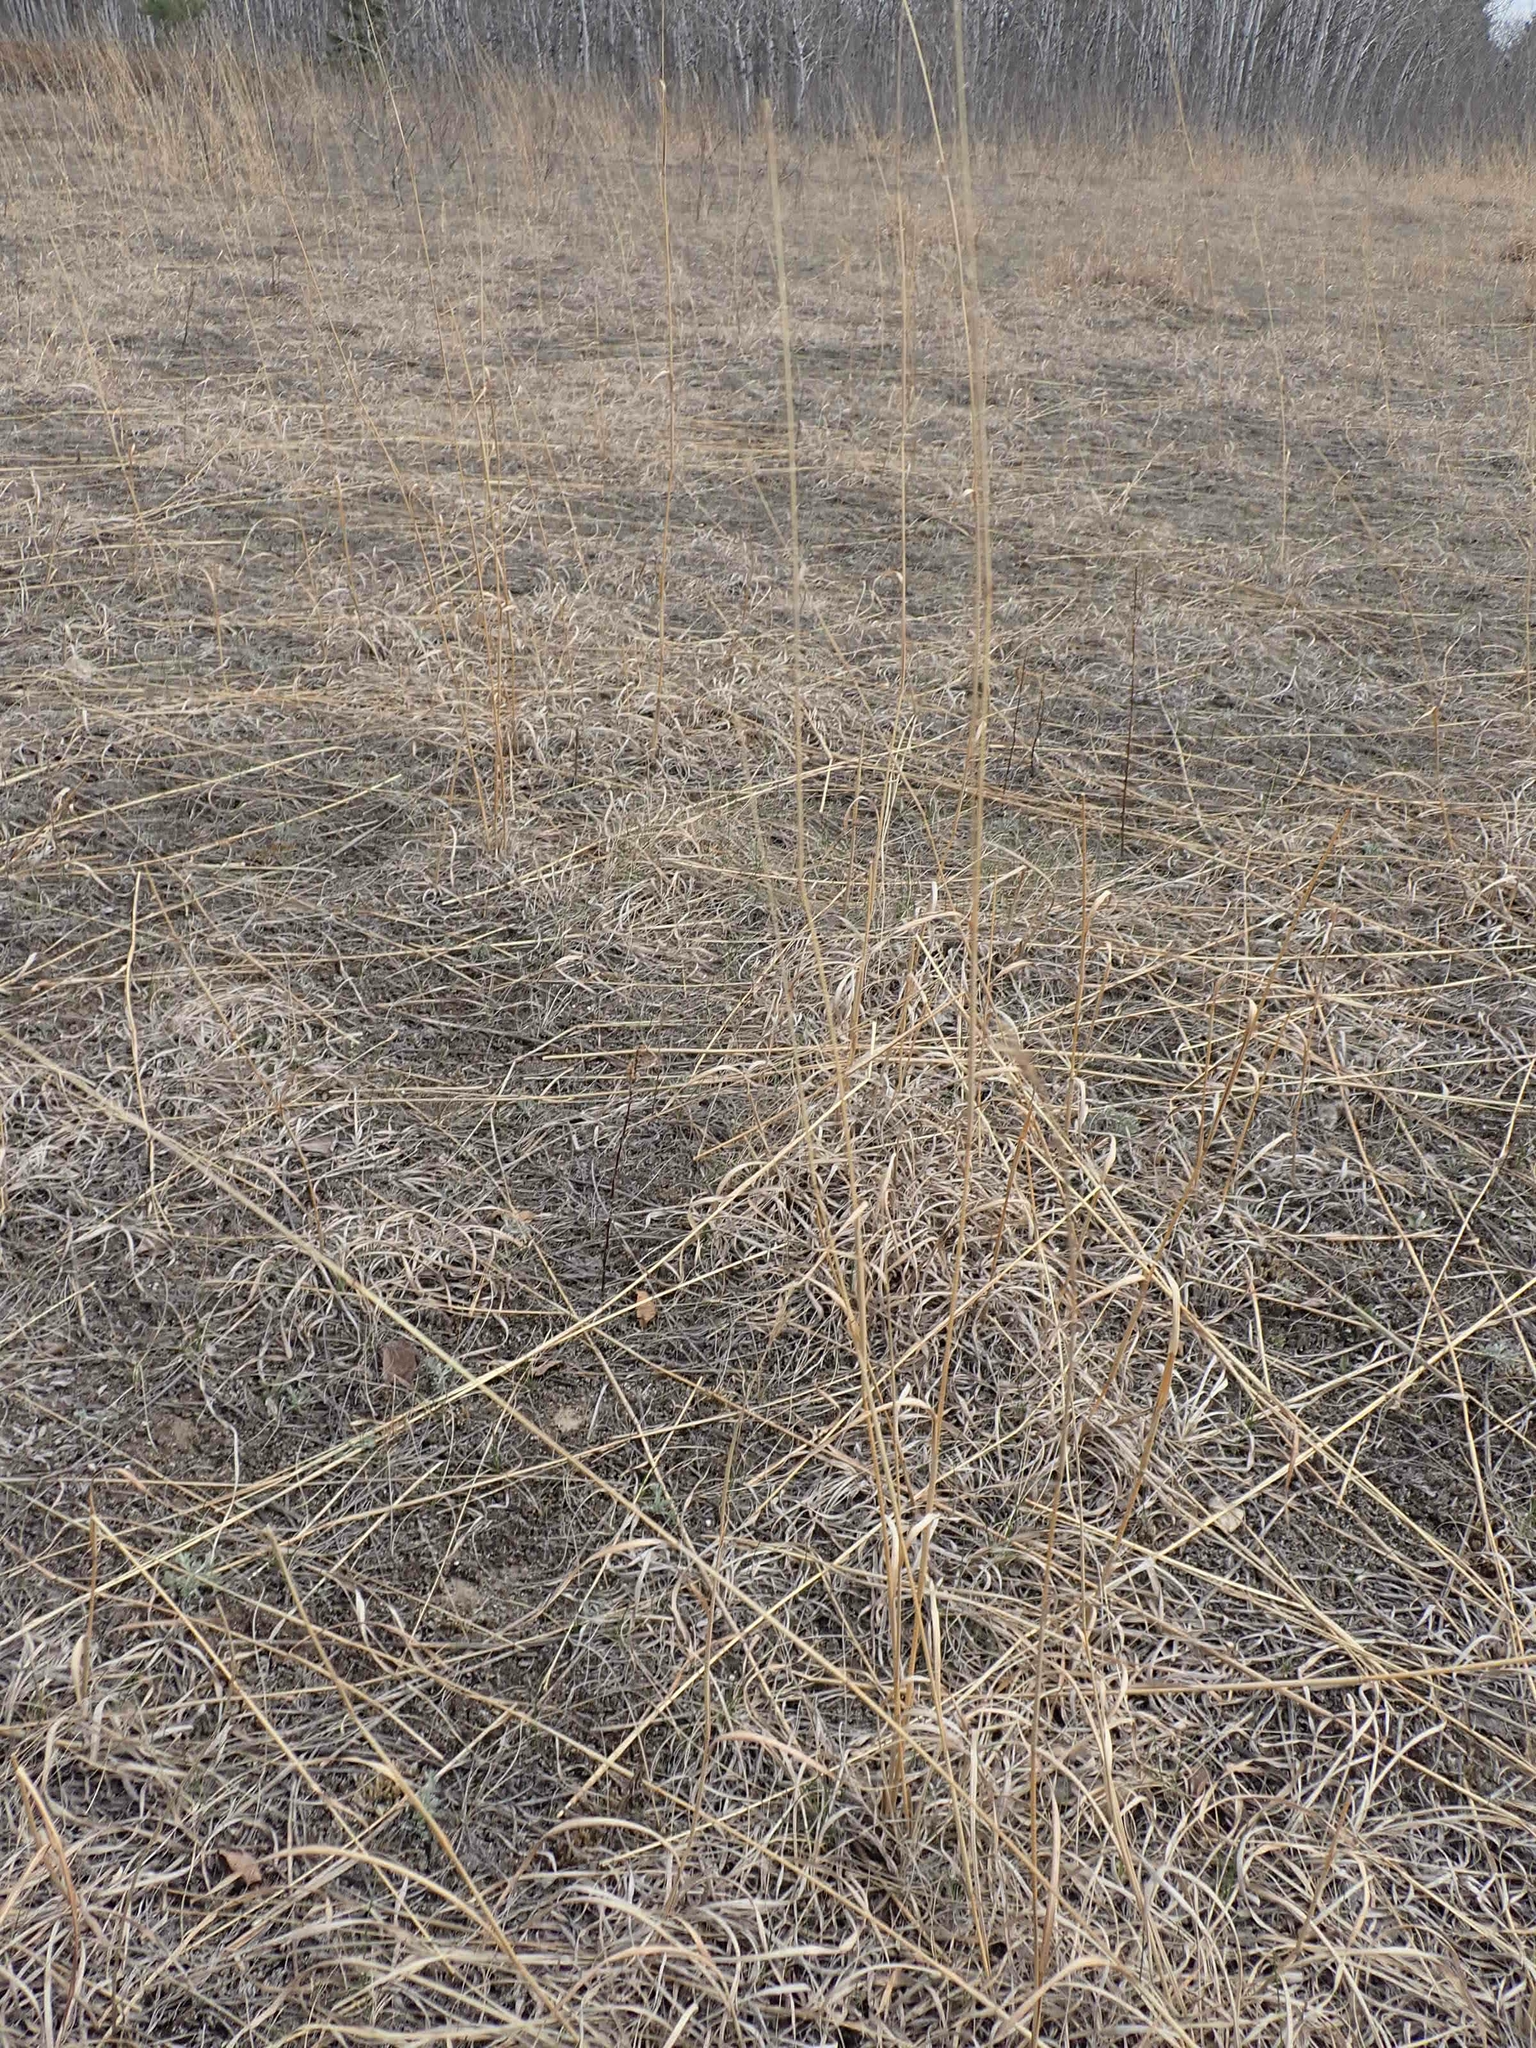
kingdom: Plantae
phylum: Tracheophyta
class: Liliopsida
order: Poales
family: Poaceae
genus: Andropogon
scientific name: Andropogon gerardi
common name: Big bluestem
